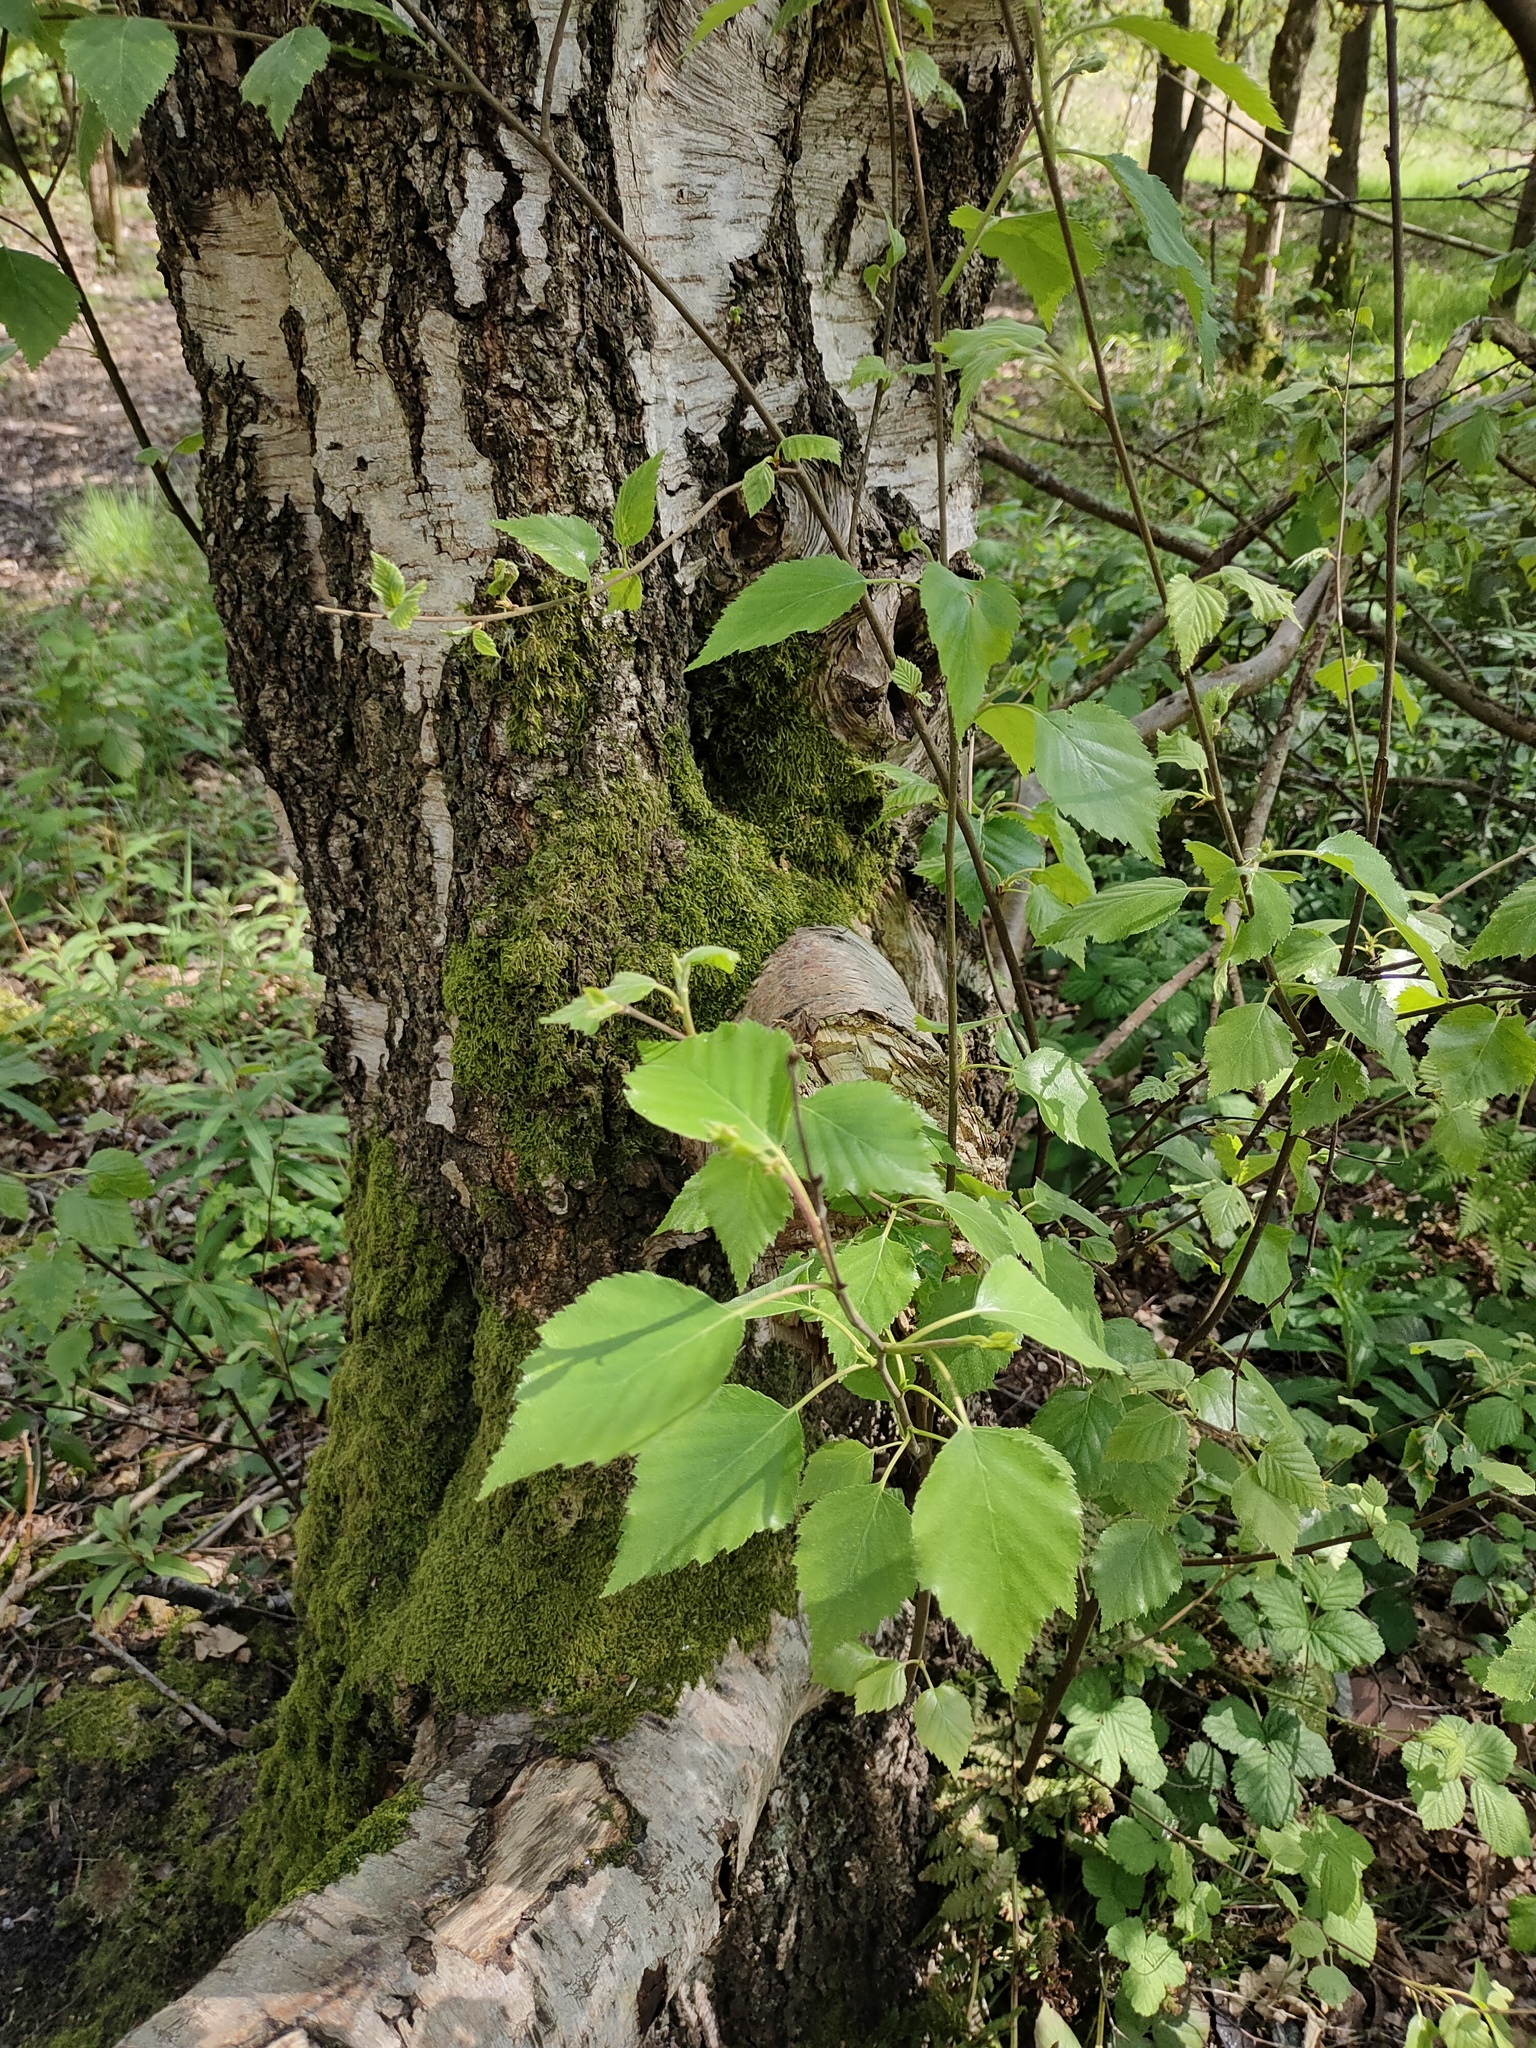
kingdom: Plantae
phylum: Tracheophyta
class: Magnoliopsida
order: Fagales
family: Betulaceae
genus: Betula
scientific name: Betula pendula
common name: Silver birch
